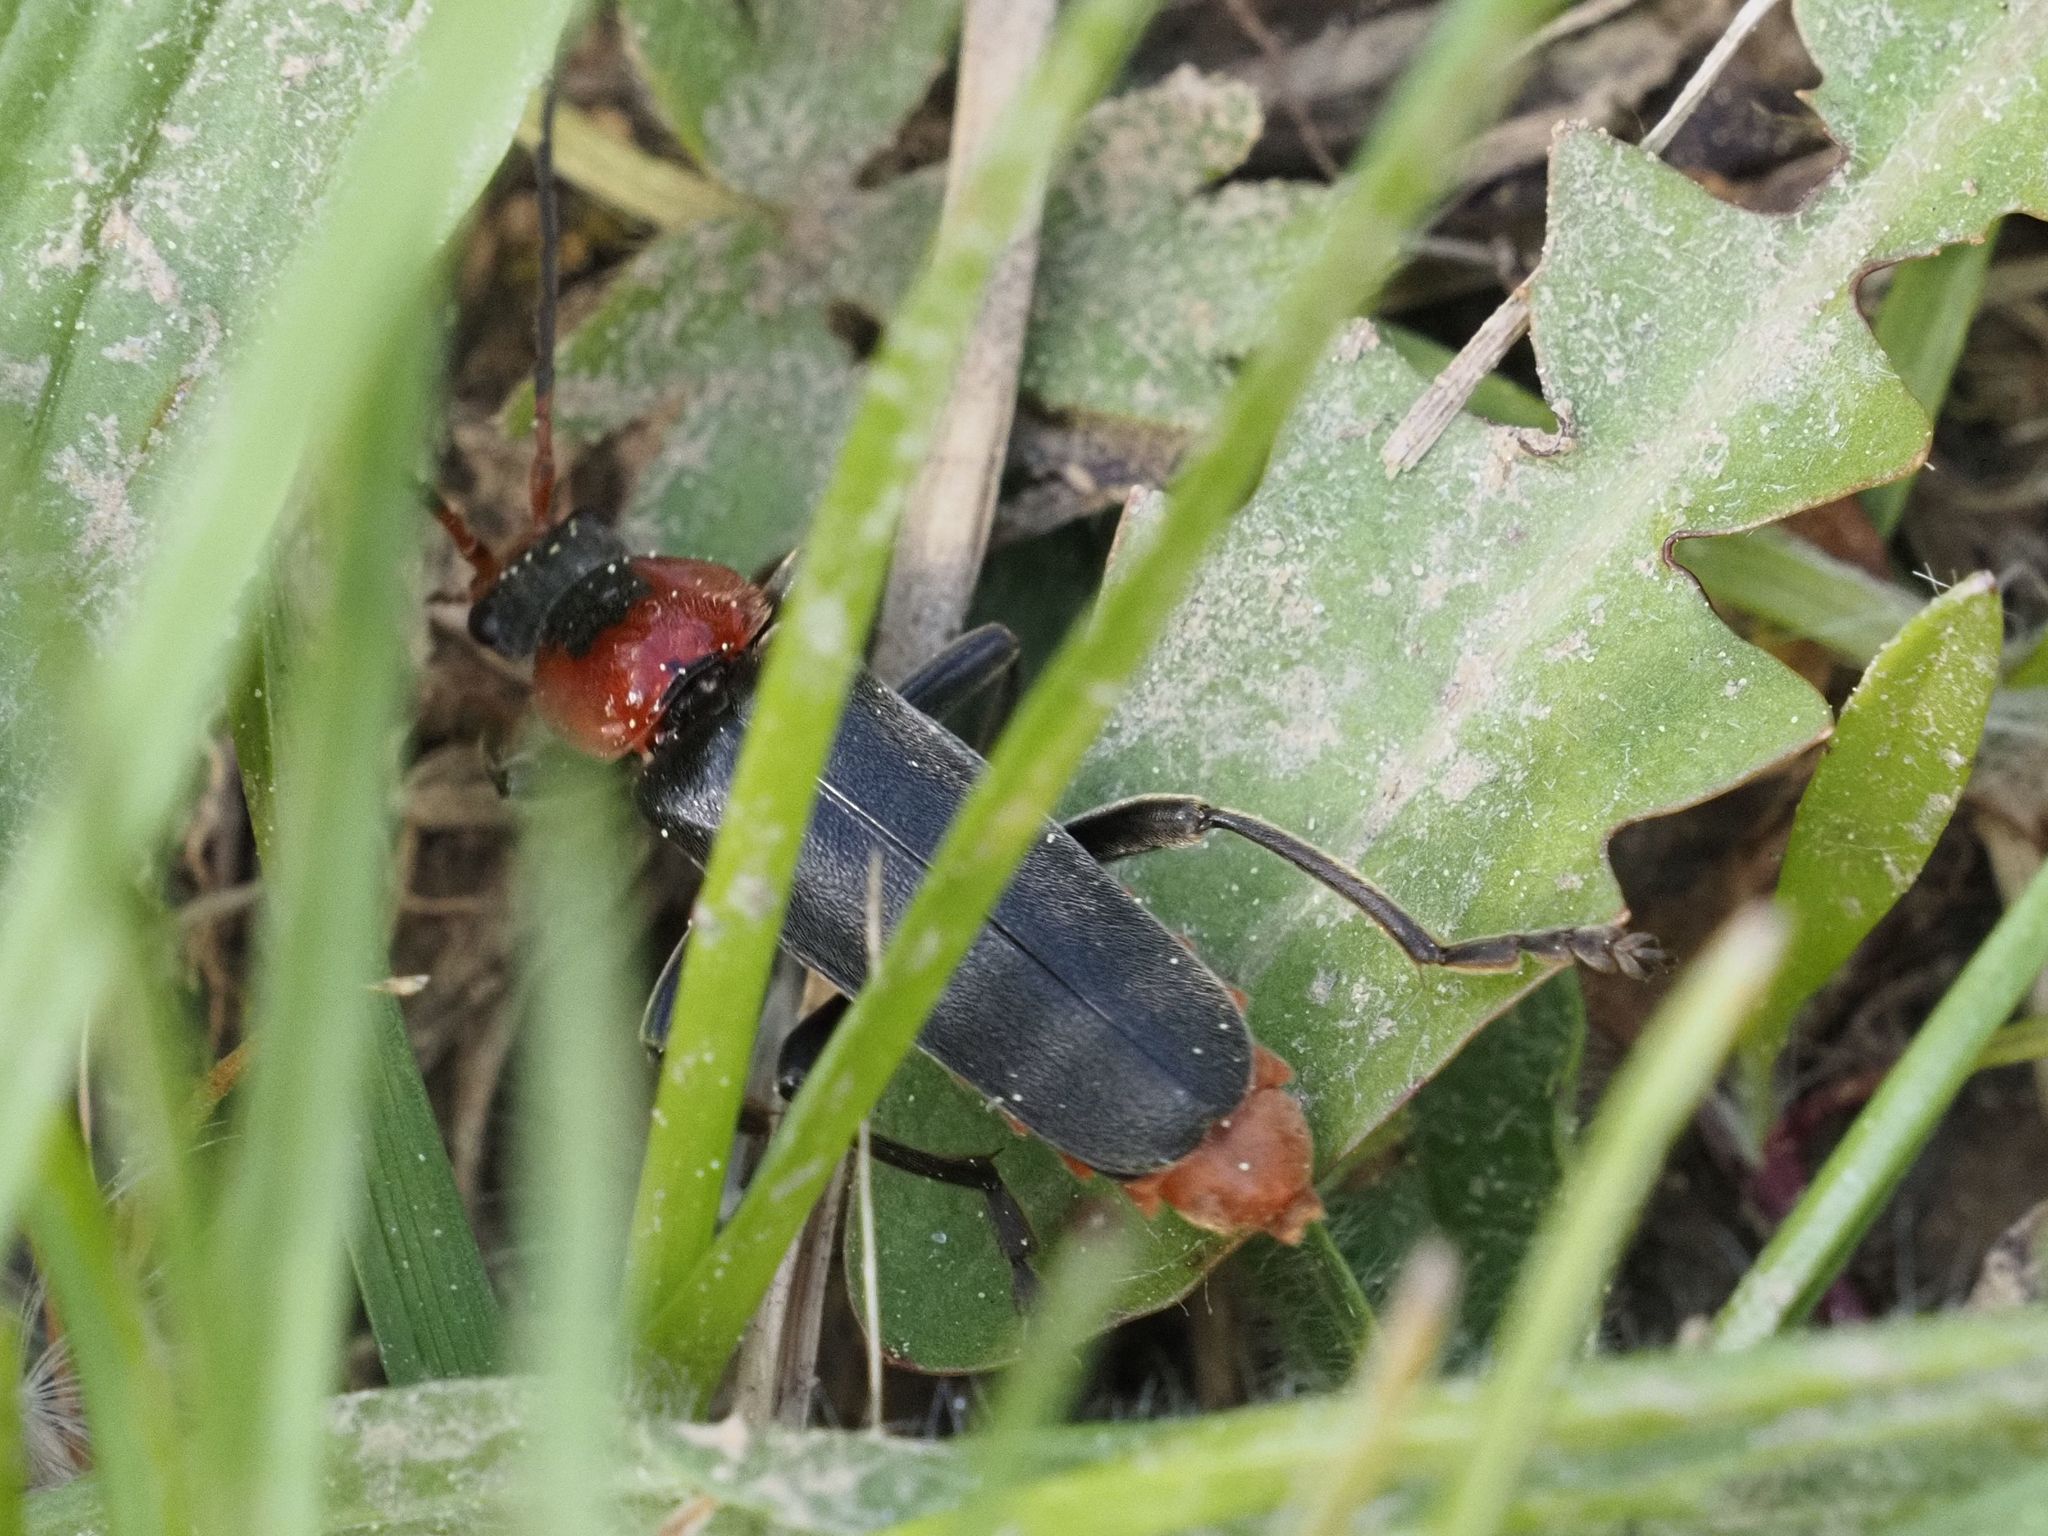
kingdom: Animalia
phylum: Arthropoda
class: Insecta
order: Coleoptera
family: Cantharidae
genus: Cantharis
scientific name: Cantharis fusca
